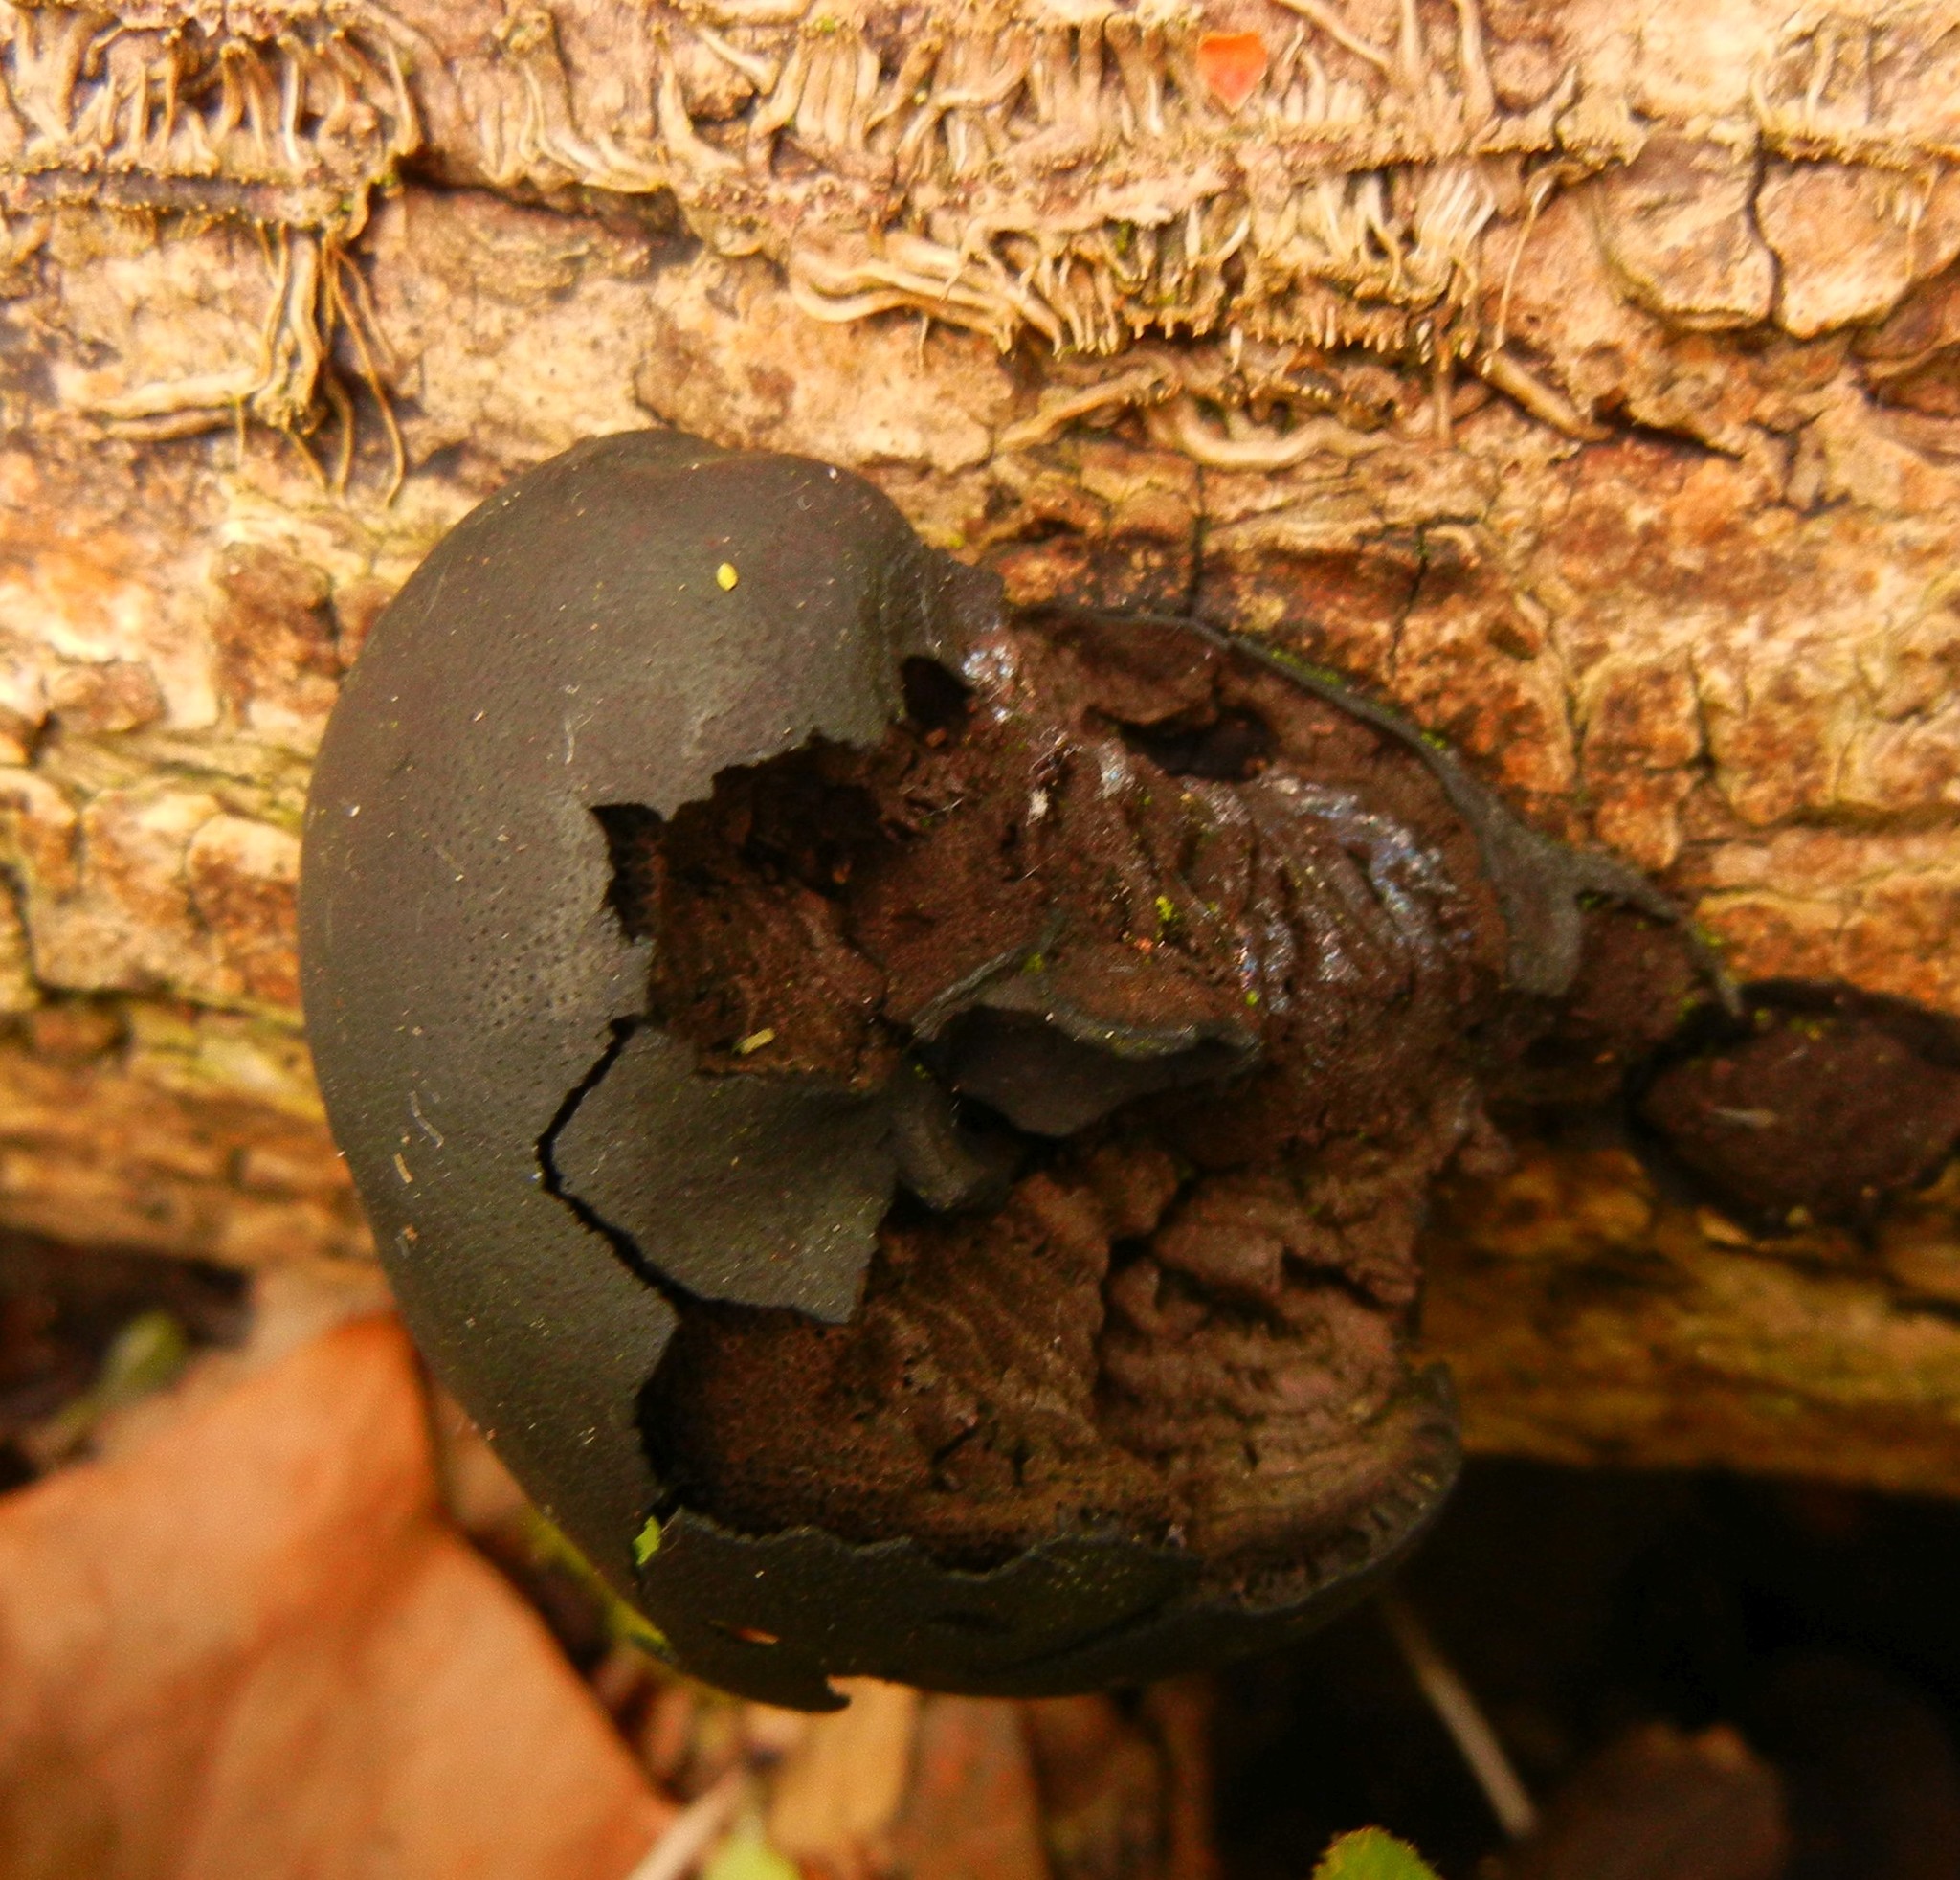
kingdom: Fungi
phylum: Ascomycota
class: Sordariomycetes
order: Xylariales
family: Hypoxylaceae
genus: Daldinia
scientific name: Daldinia concentrica
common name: Cramp balls
